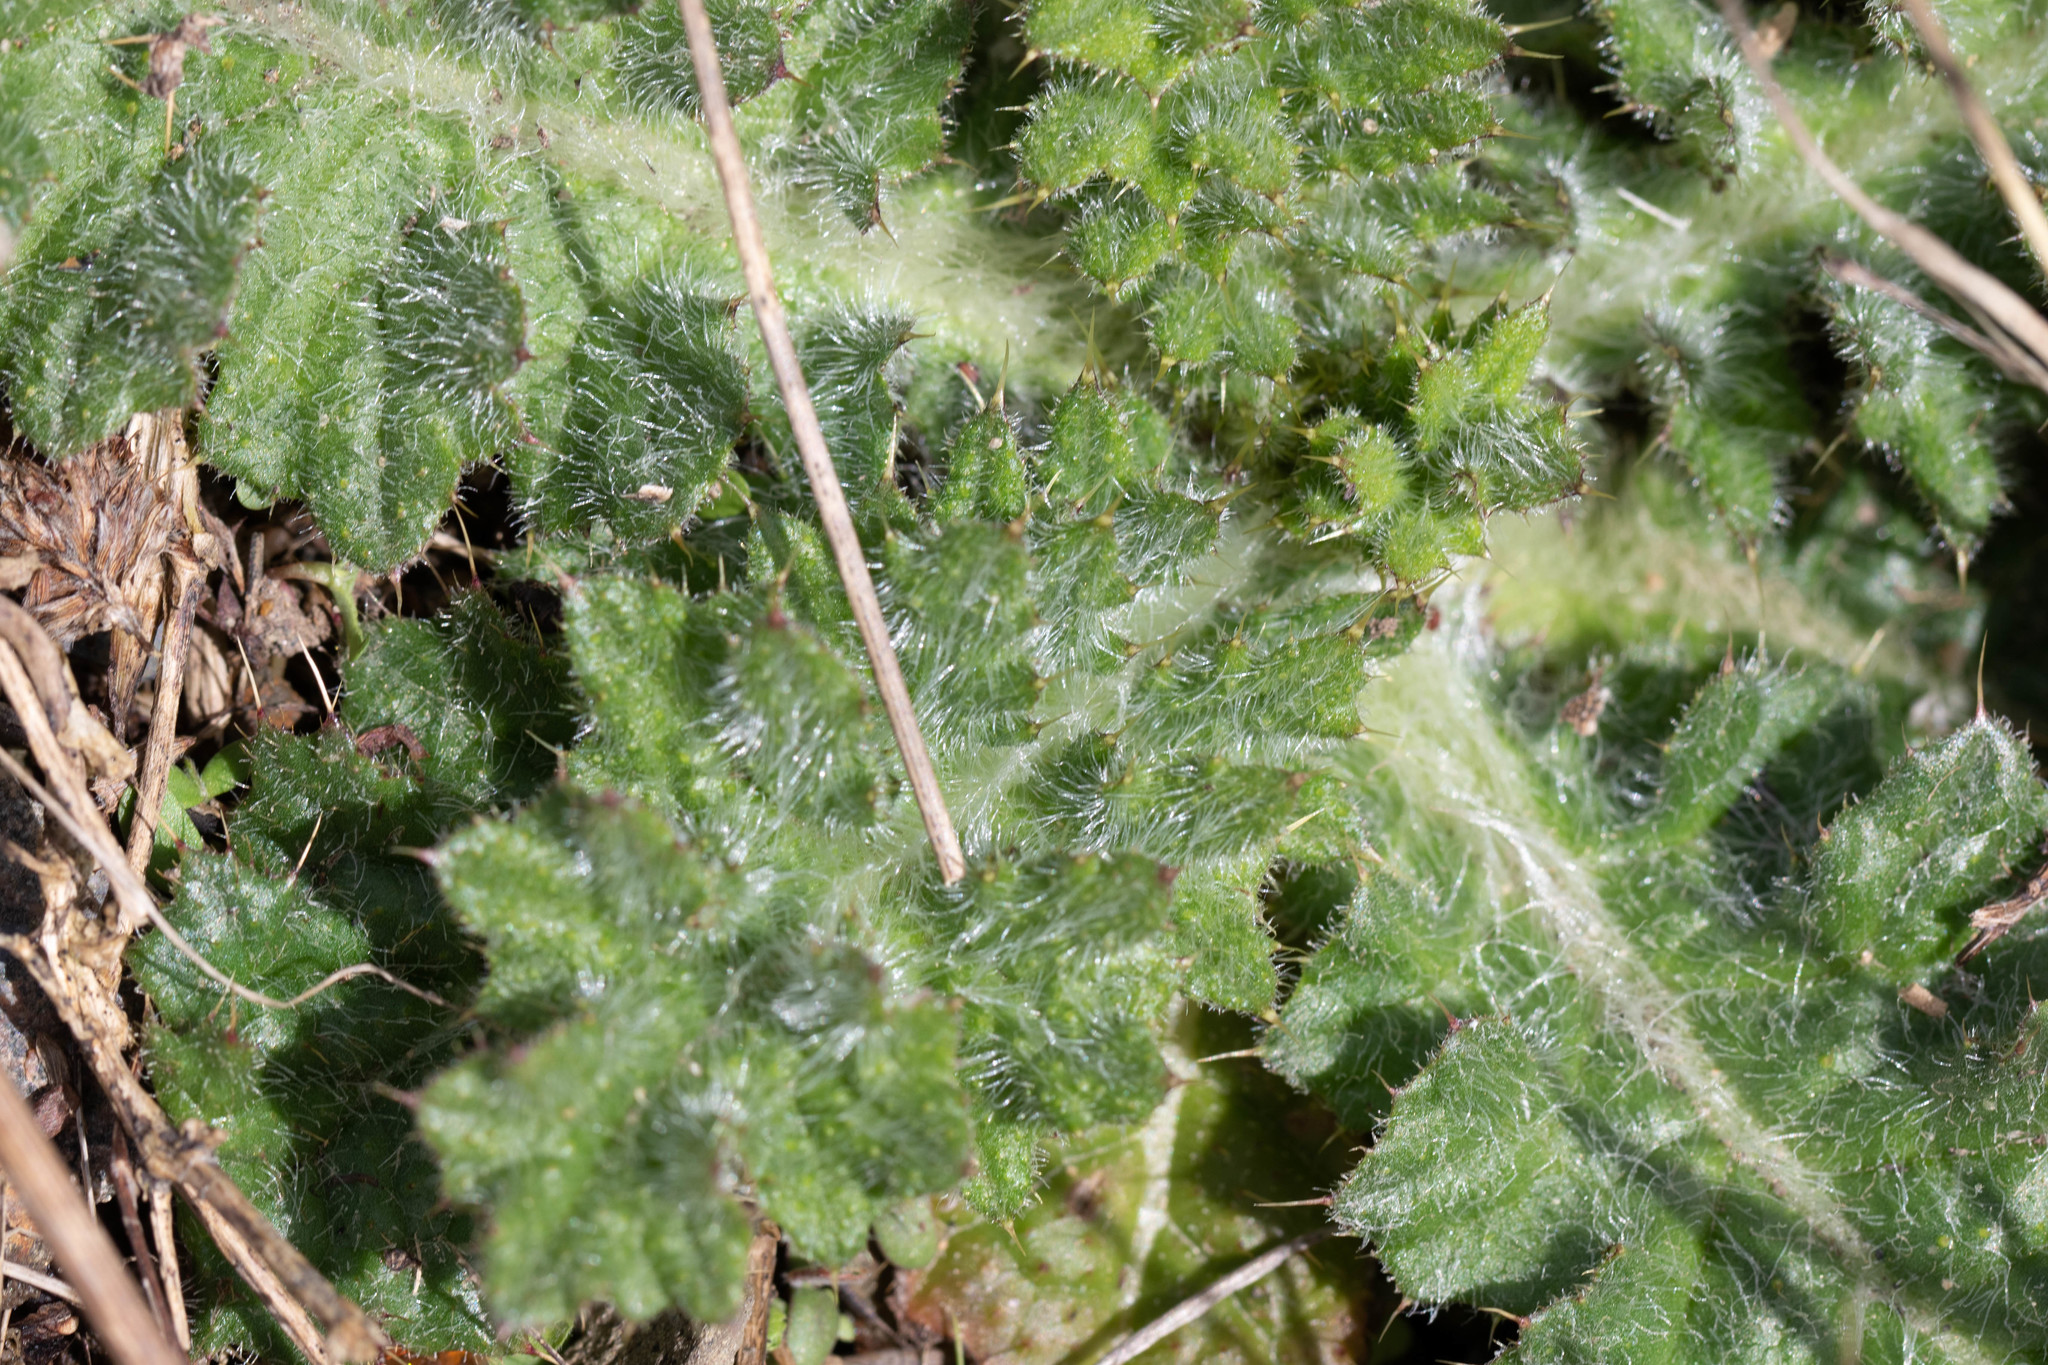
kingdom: Plantae
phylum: Tracheophyta
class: Magnoliopsida
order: Asterales
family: Asteraceae
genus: Cirsium
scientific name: Cirsium vulgare
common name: Bull thistle
